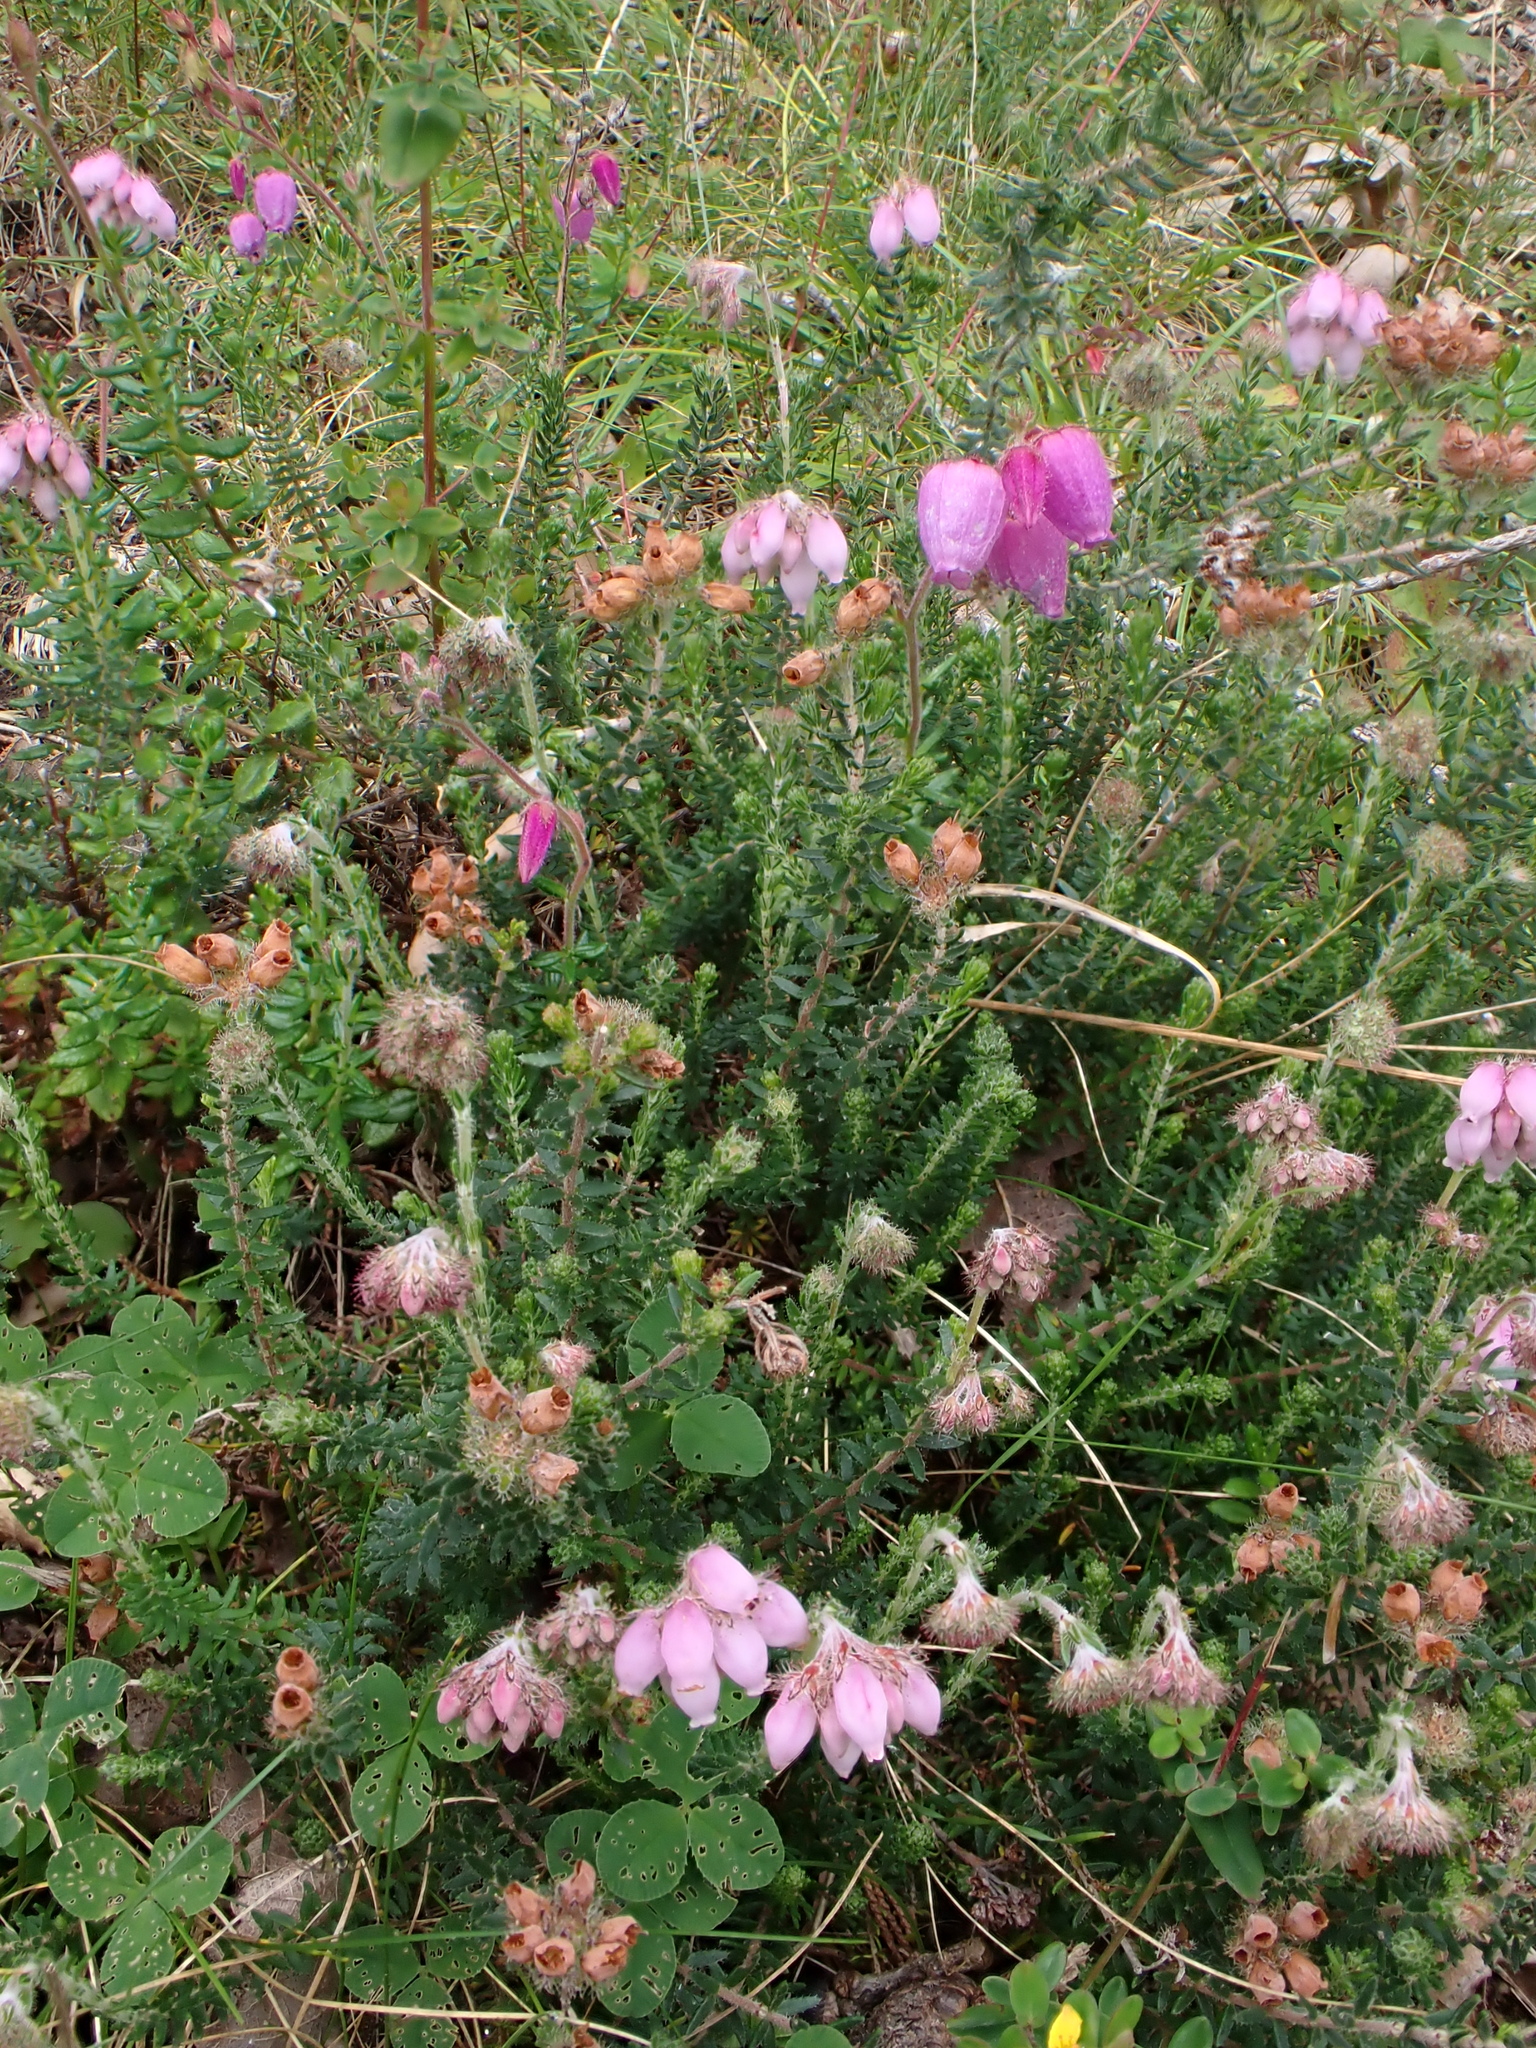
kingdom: Plantae
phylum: Tracheophyta
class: Magnoliopsida
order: Ericales
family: Ericaceae
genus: Erica
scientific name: Erica tetralix
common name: Cross-leaved heath
